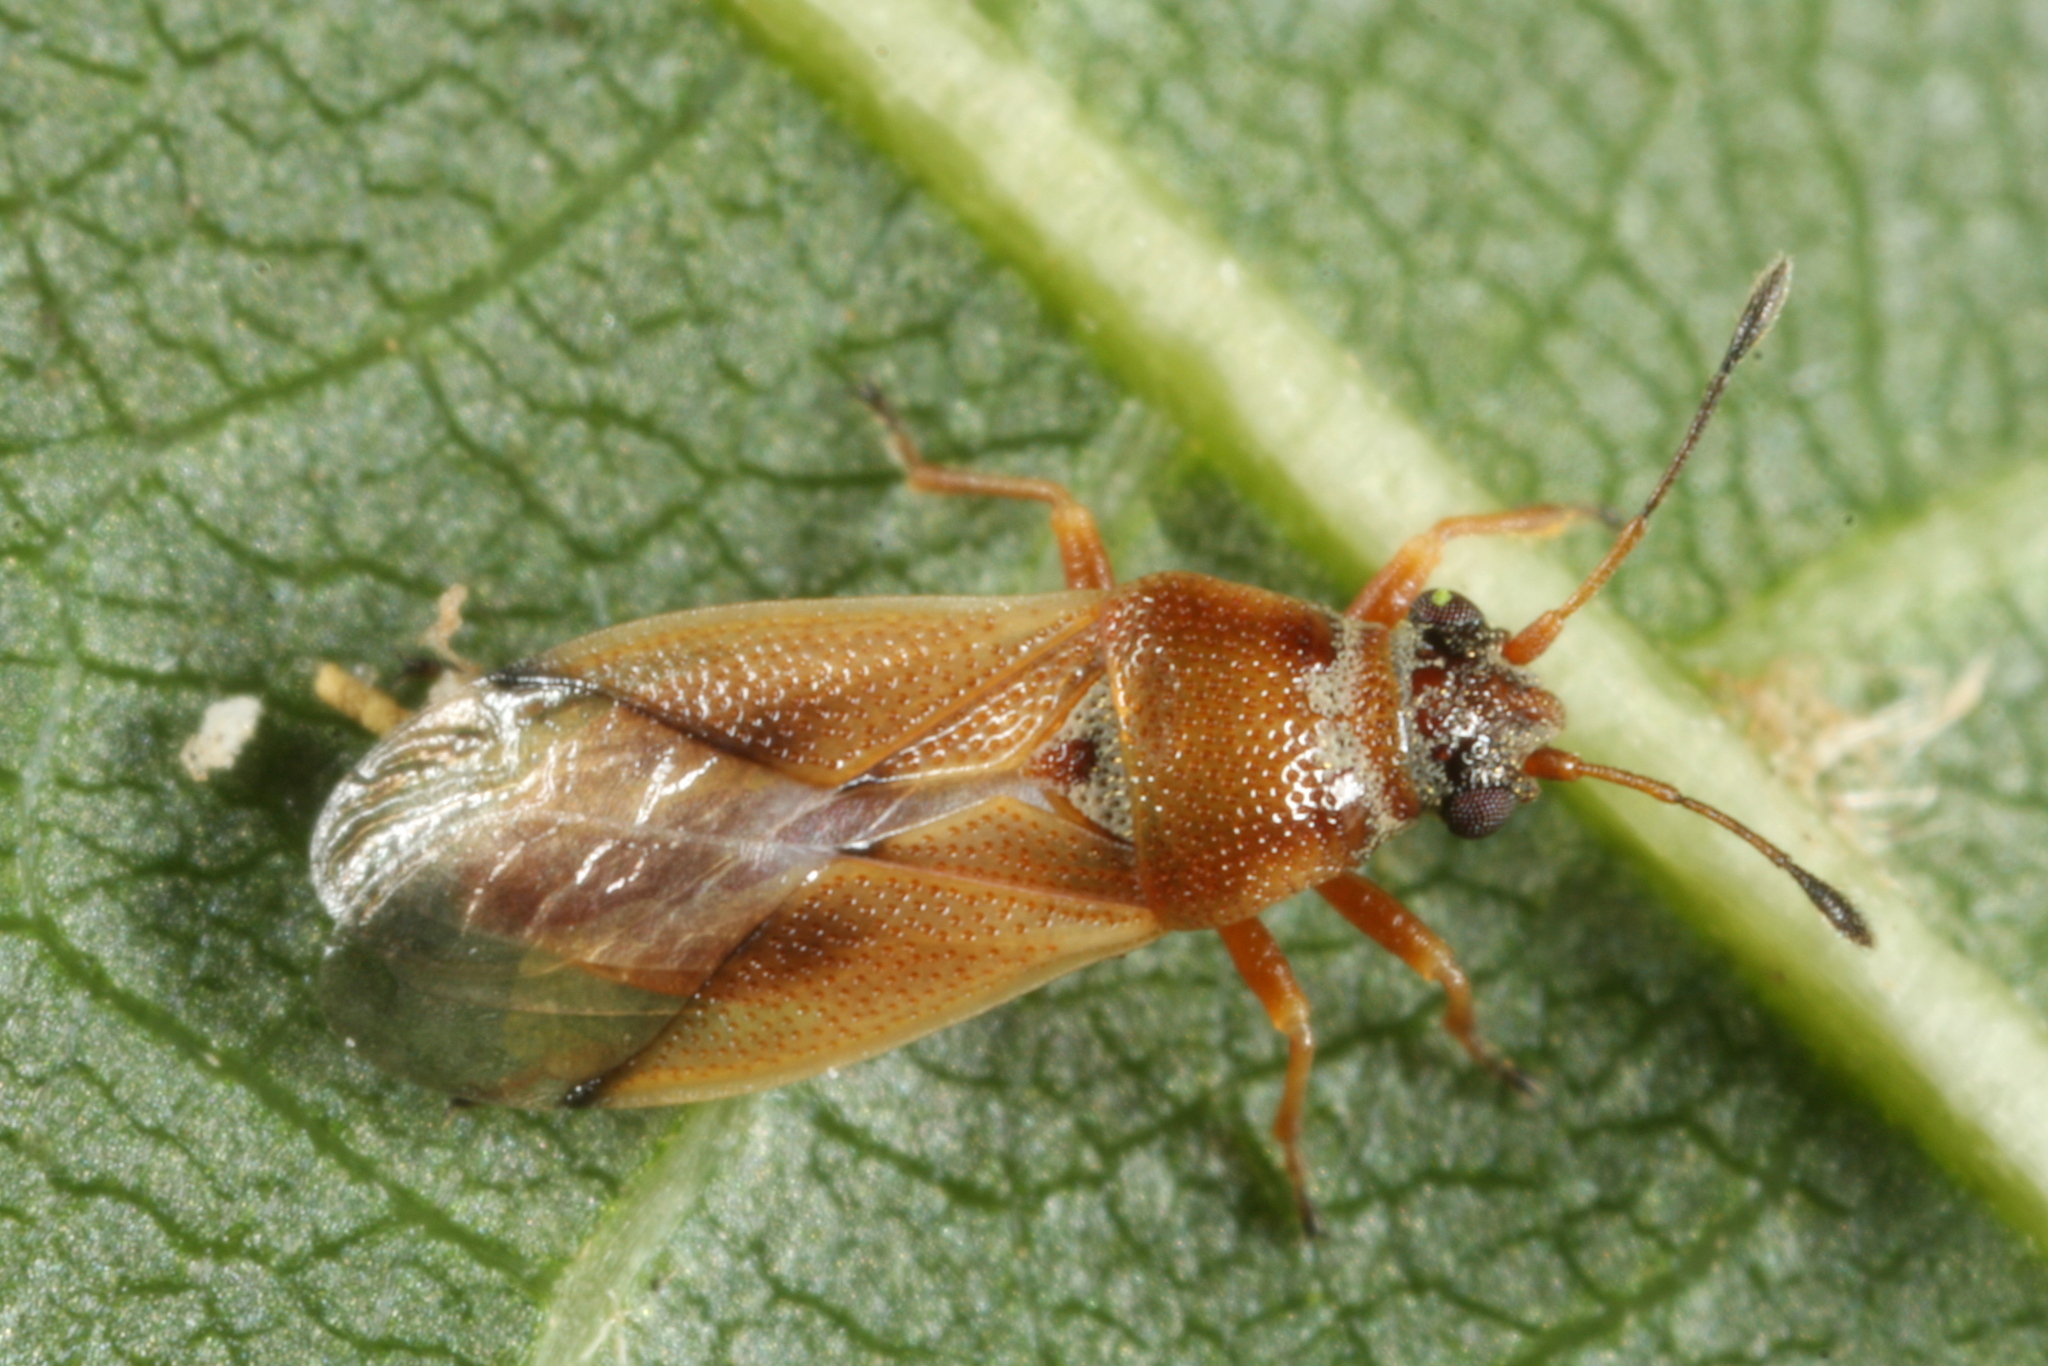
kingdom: Animalia
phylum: Arthropoda
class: Insecta
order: Hemiptera
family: Cymidae
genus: Cymus
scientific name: Cymus melanocephalus
